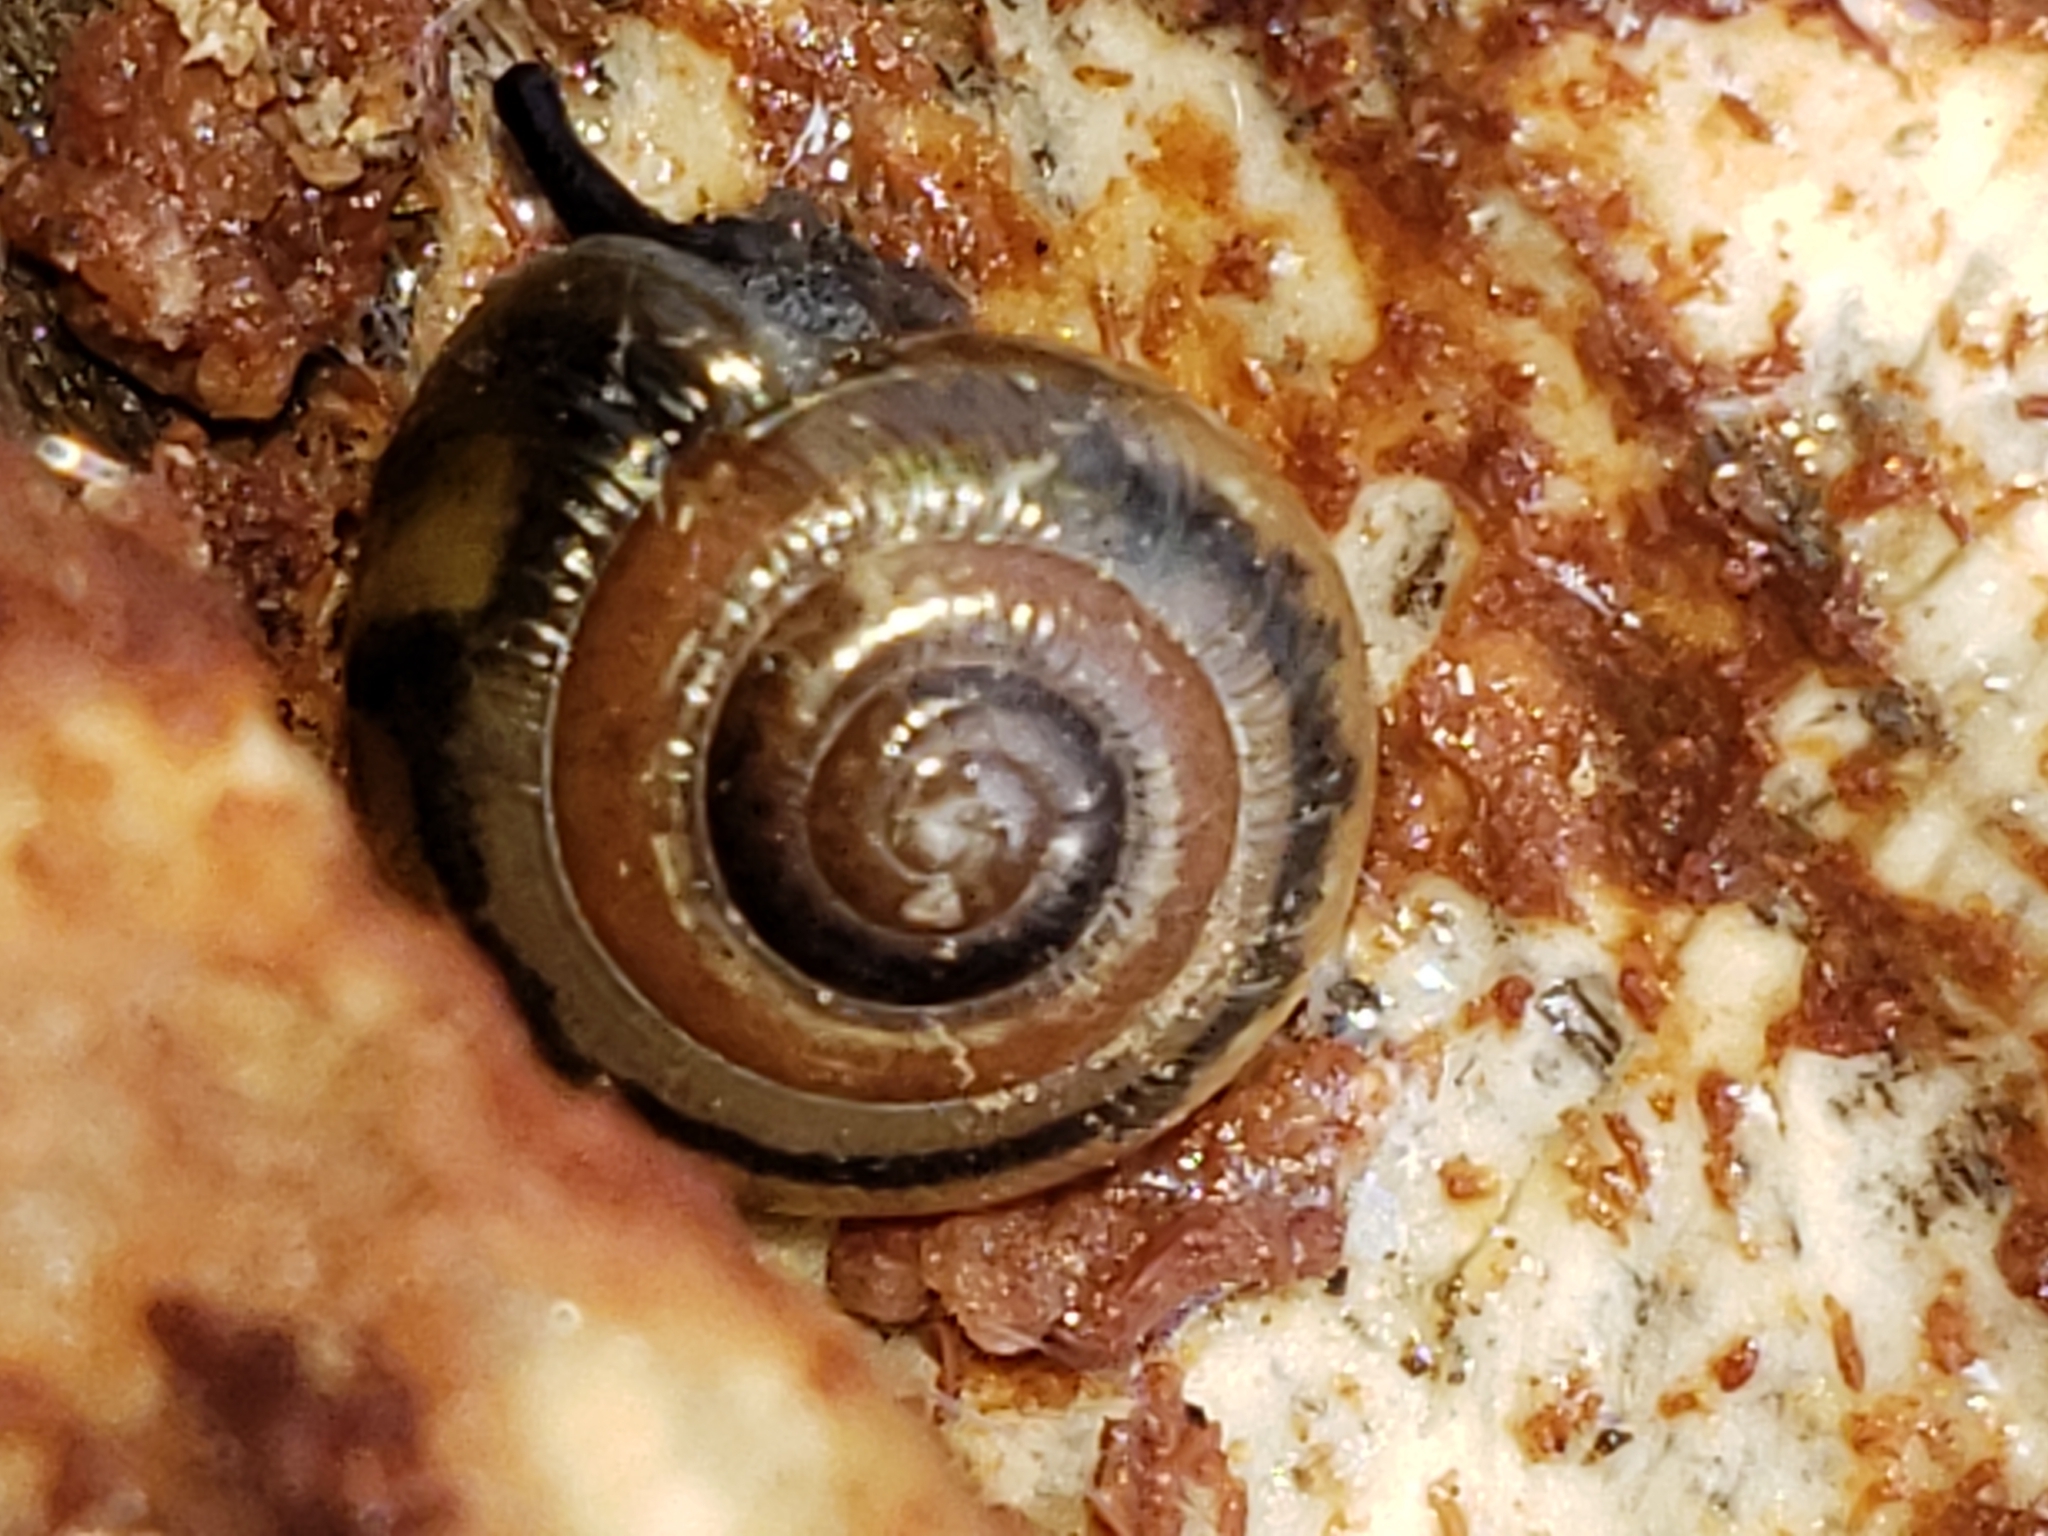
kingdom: Animalia
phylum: Mollusca
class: Gastropoda
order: Stylommatophora
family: Gastrodontidae
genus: Ventridens
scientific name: Ventridens ligera
